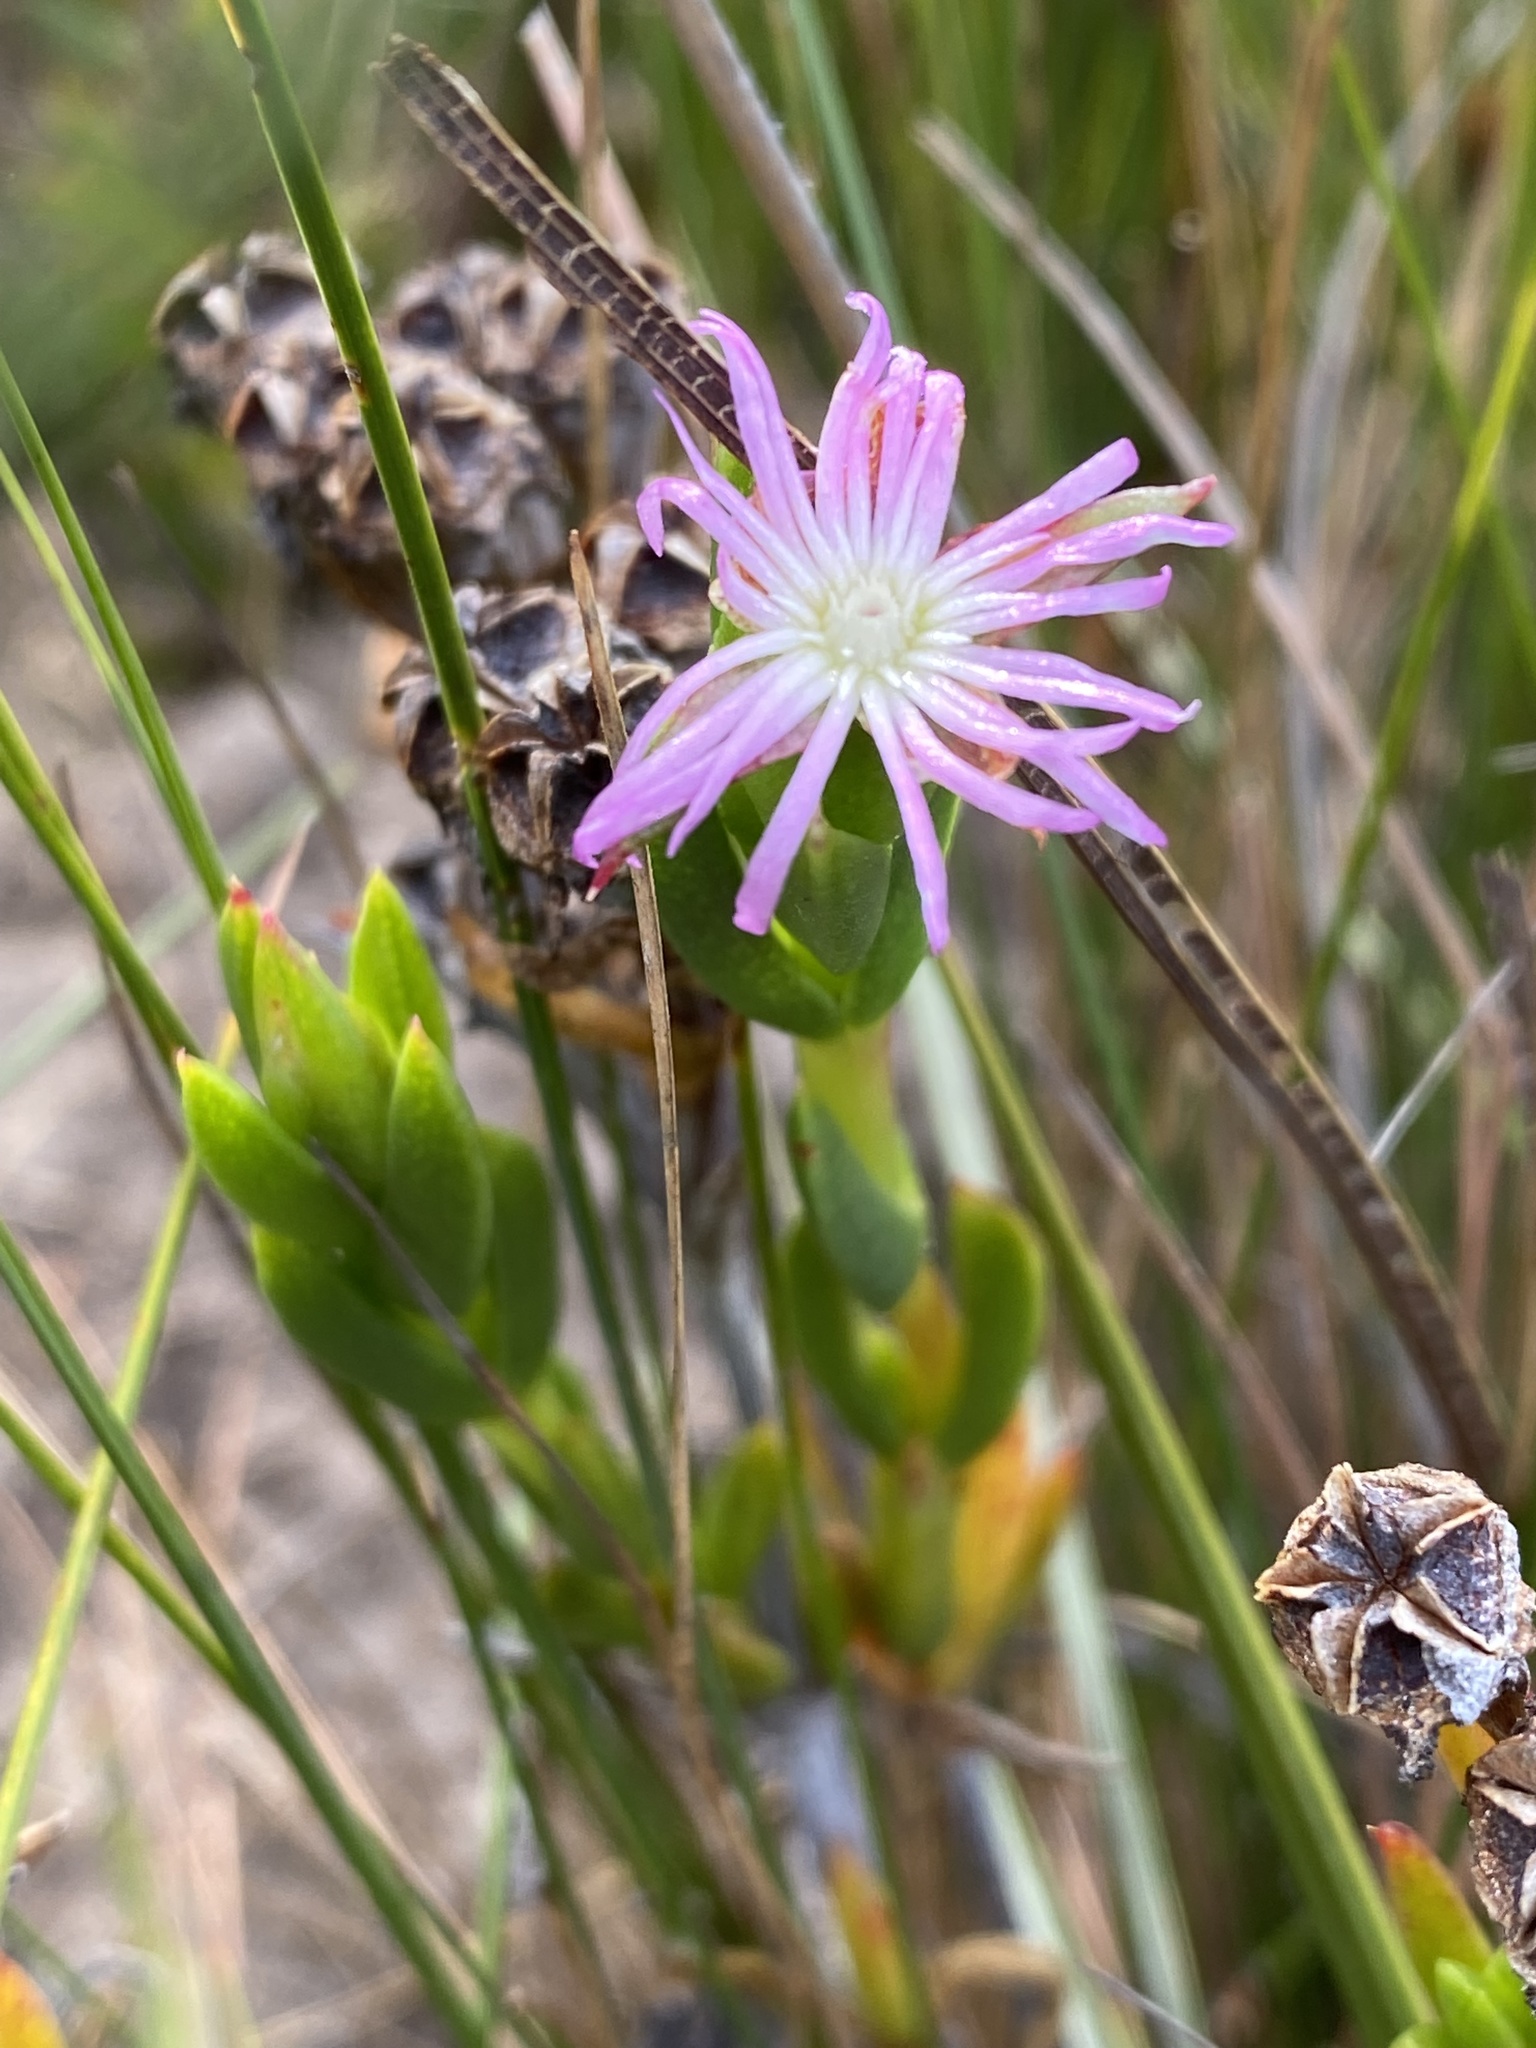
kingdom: Plantae
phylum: Tracheophyta
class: Magnoliopsida
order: Caryophyllales
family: Aizoaceae
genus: Erepsia
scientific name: Erepsia polita
